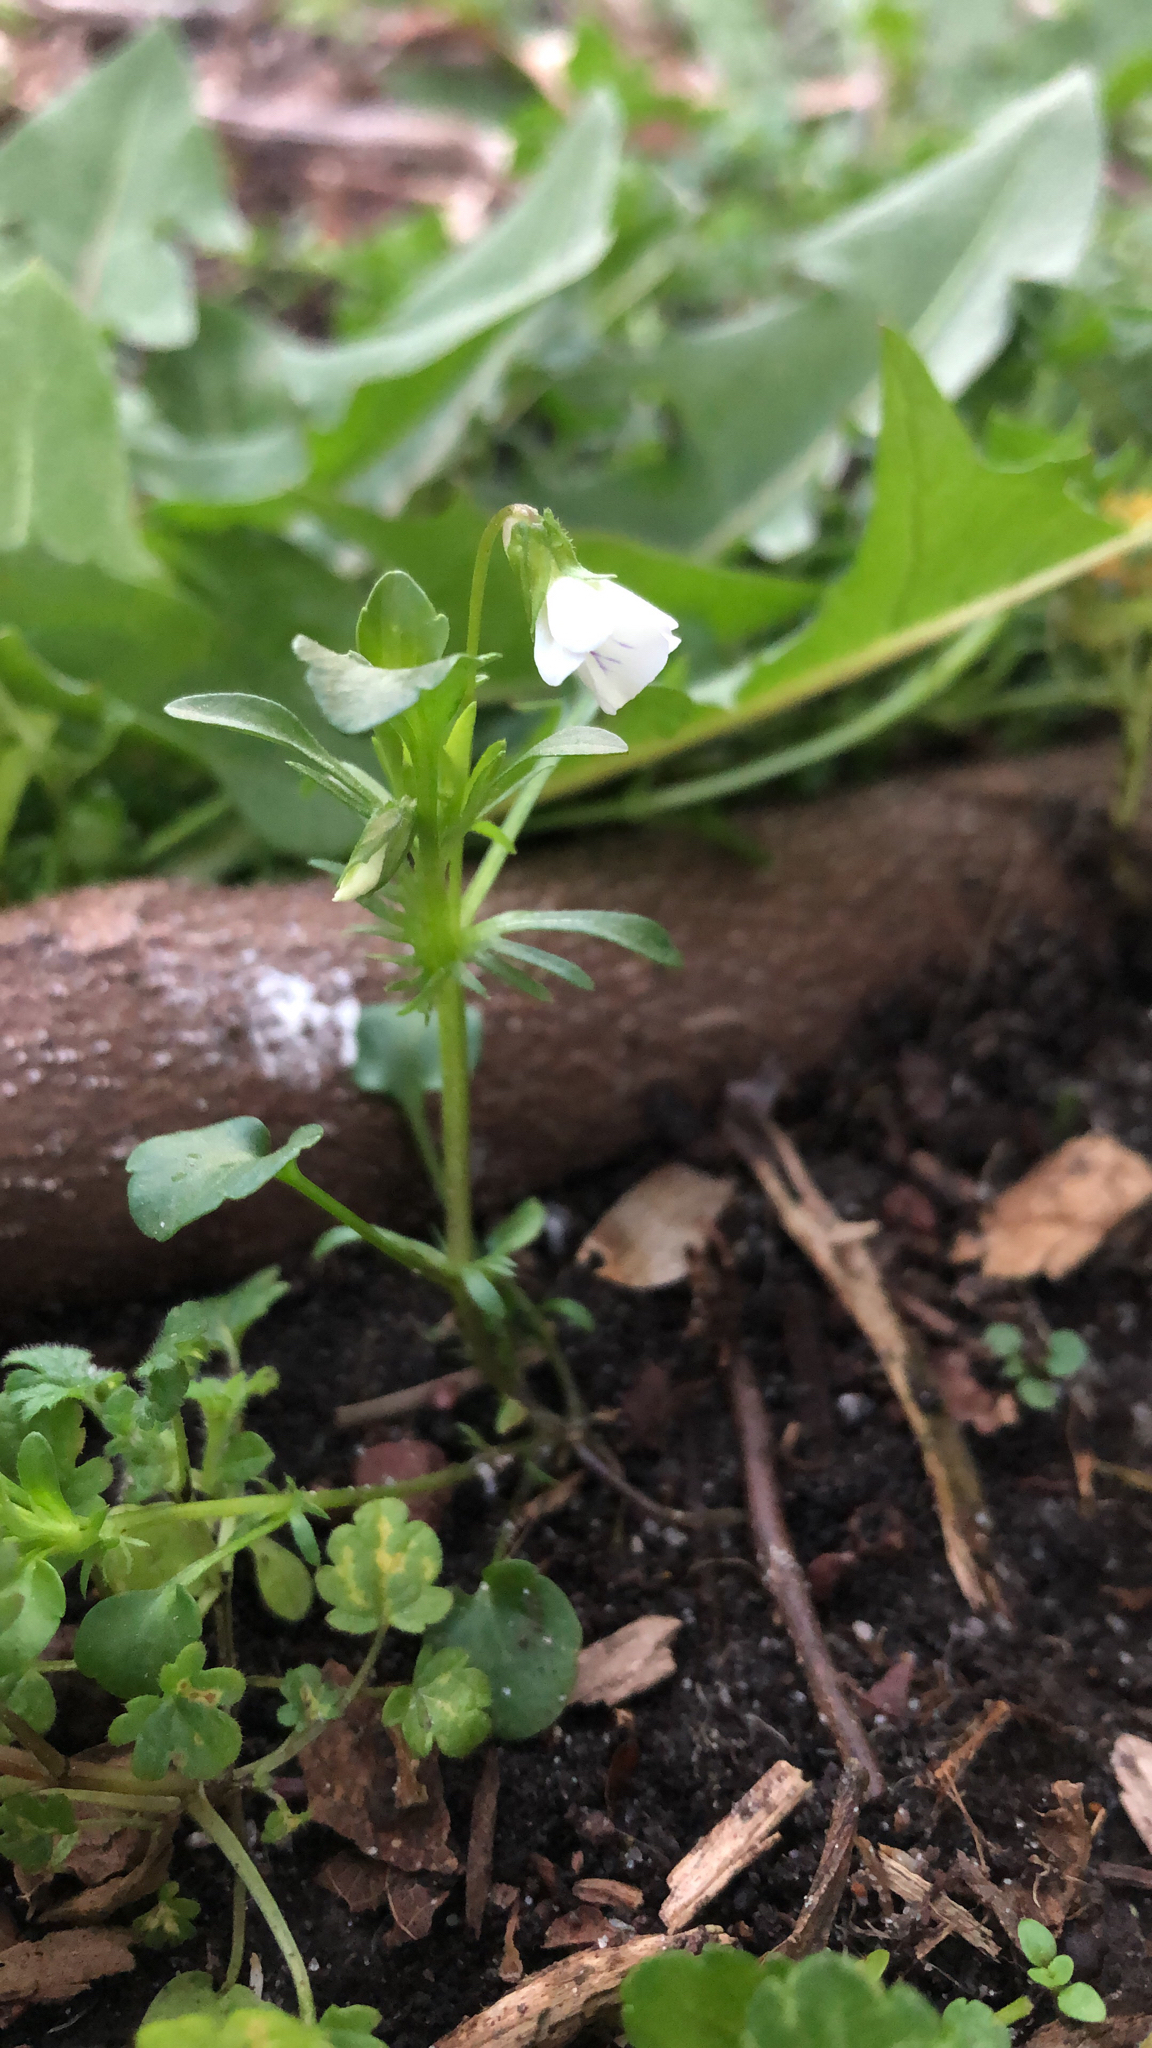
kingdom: Plantae
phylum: Tracheophyta
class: Magnoliopsida
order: Malpighiales
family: Violaceae
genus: Viola
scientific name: Viola rafinesquei
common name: American field pansy
